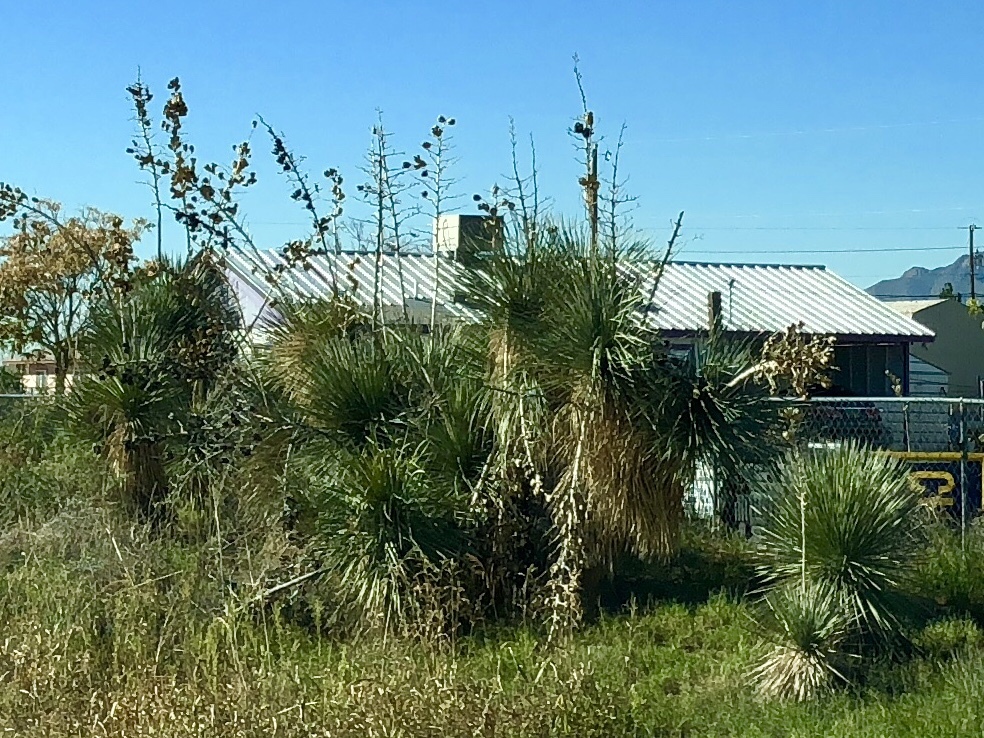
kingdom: Plantae
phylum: Tracheophyta
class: Liliopsida
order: Asparagales
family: Asparagaceae
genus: Yucca
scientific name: Yucca elata
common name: Palmella
